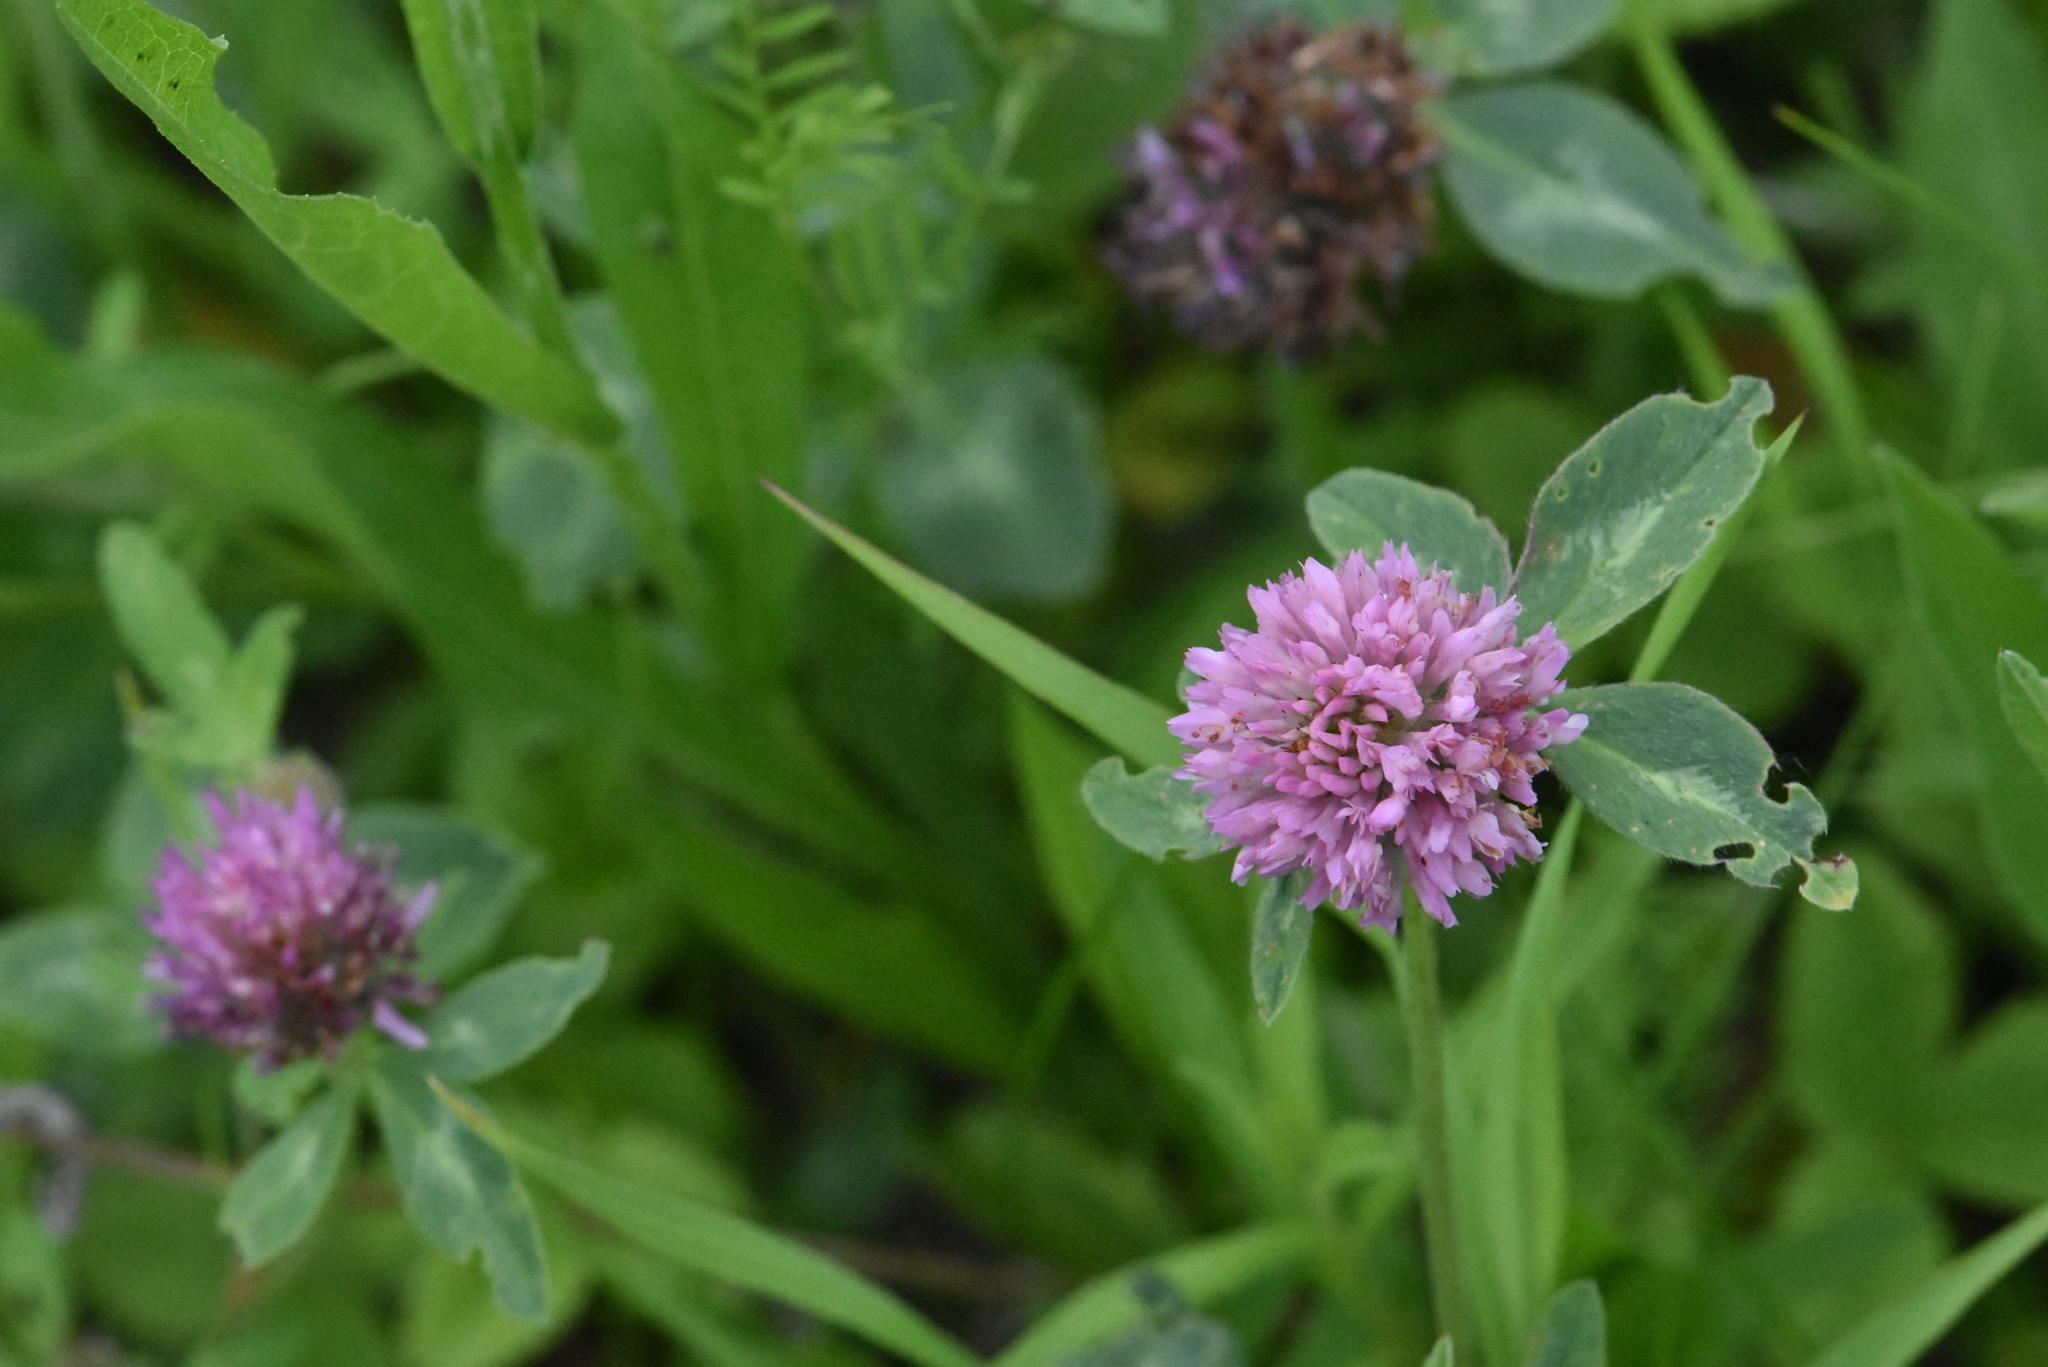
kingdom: Plantae
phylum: Tracheophyta
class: Magnoliopsida
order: Fabales
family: Fabaceae
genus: Trifolium
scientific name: Trifolium pratense
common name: Red clover
